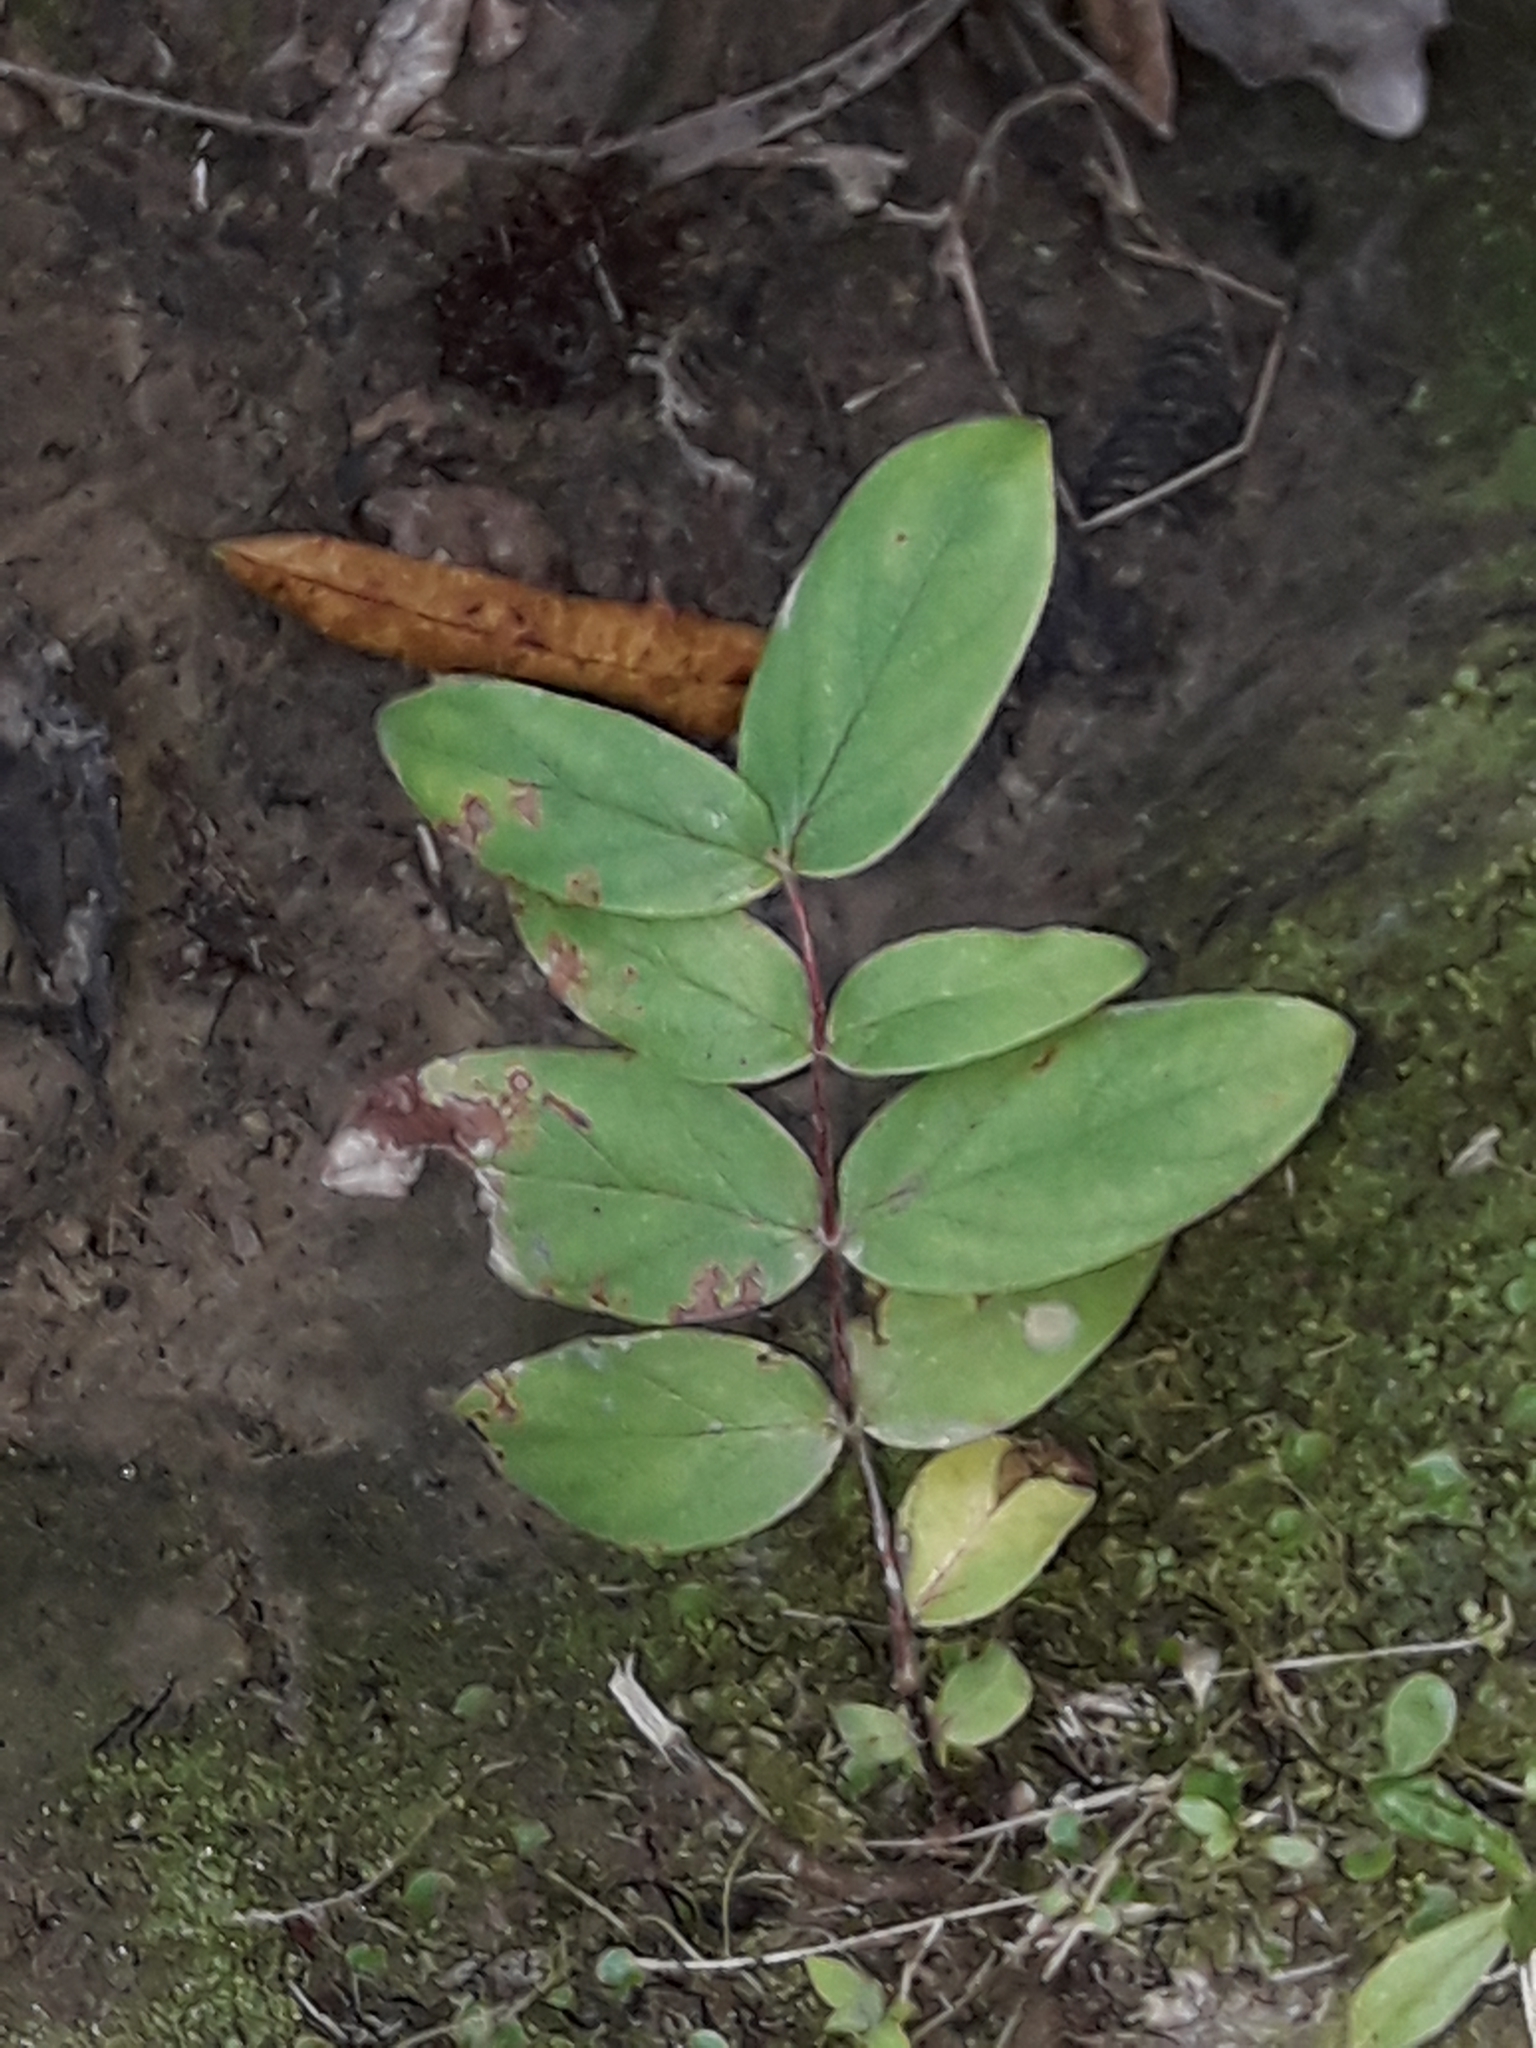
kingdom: Plantae
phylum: Tracheophyta
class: Magnoliopsida
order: Malpighiales
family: Hypericaceae
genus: Hypericum
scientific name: Hypericum androsaemum
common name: Sweet-amber
